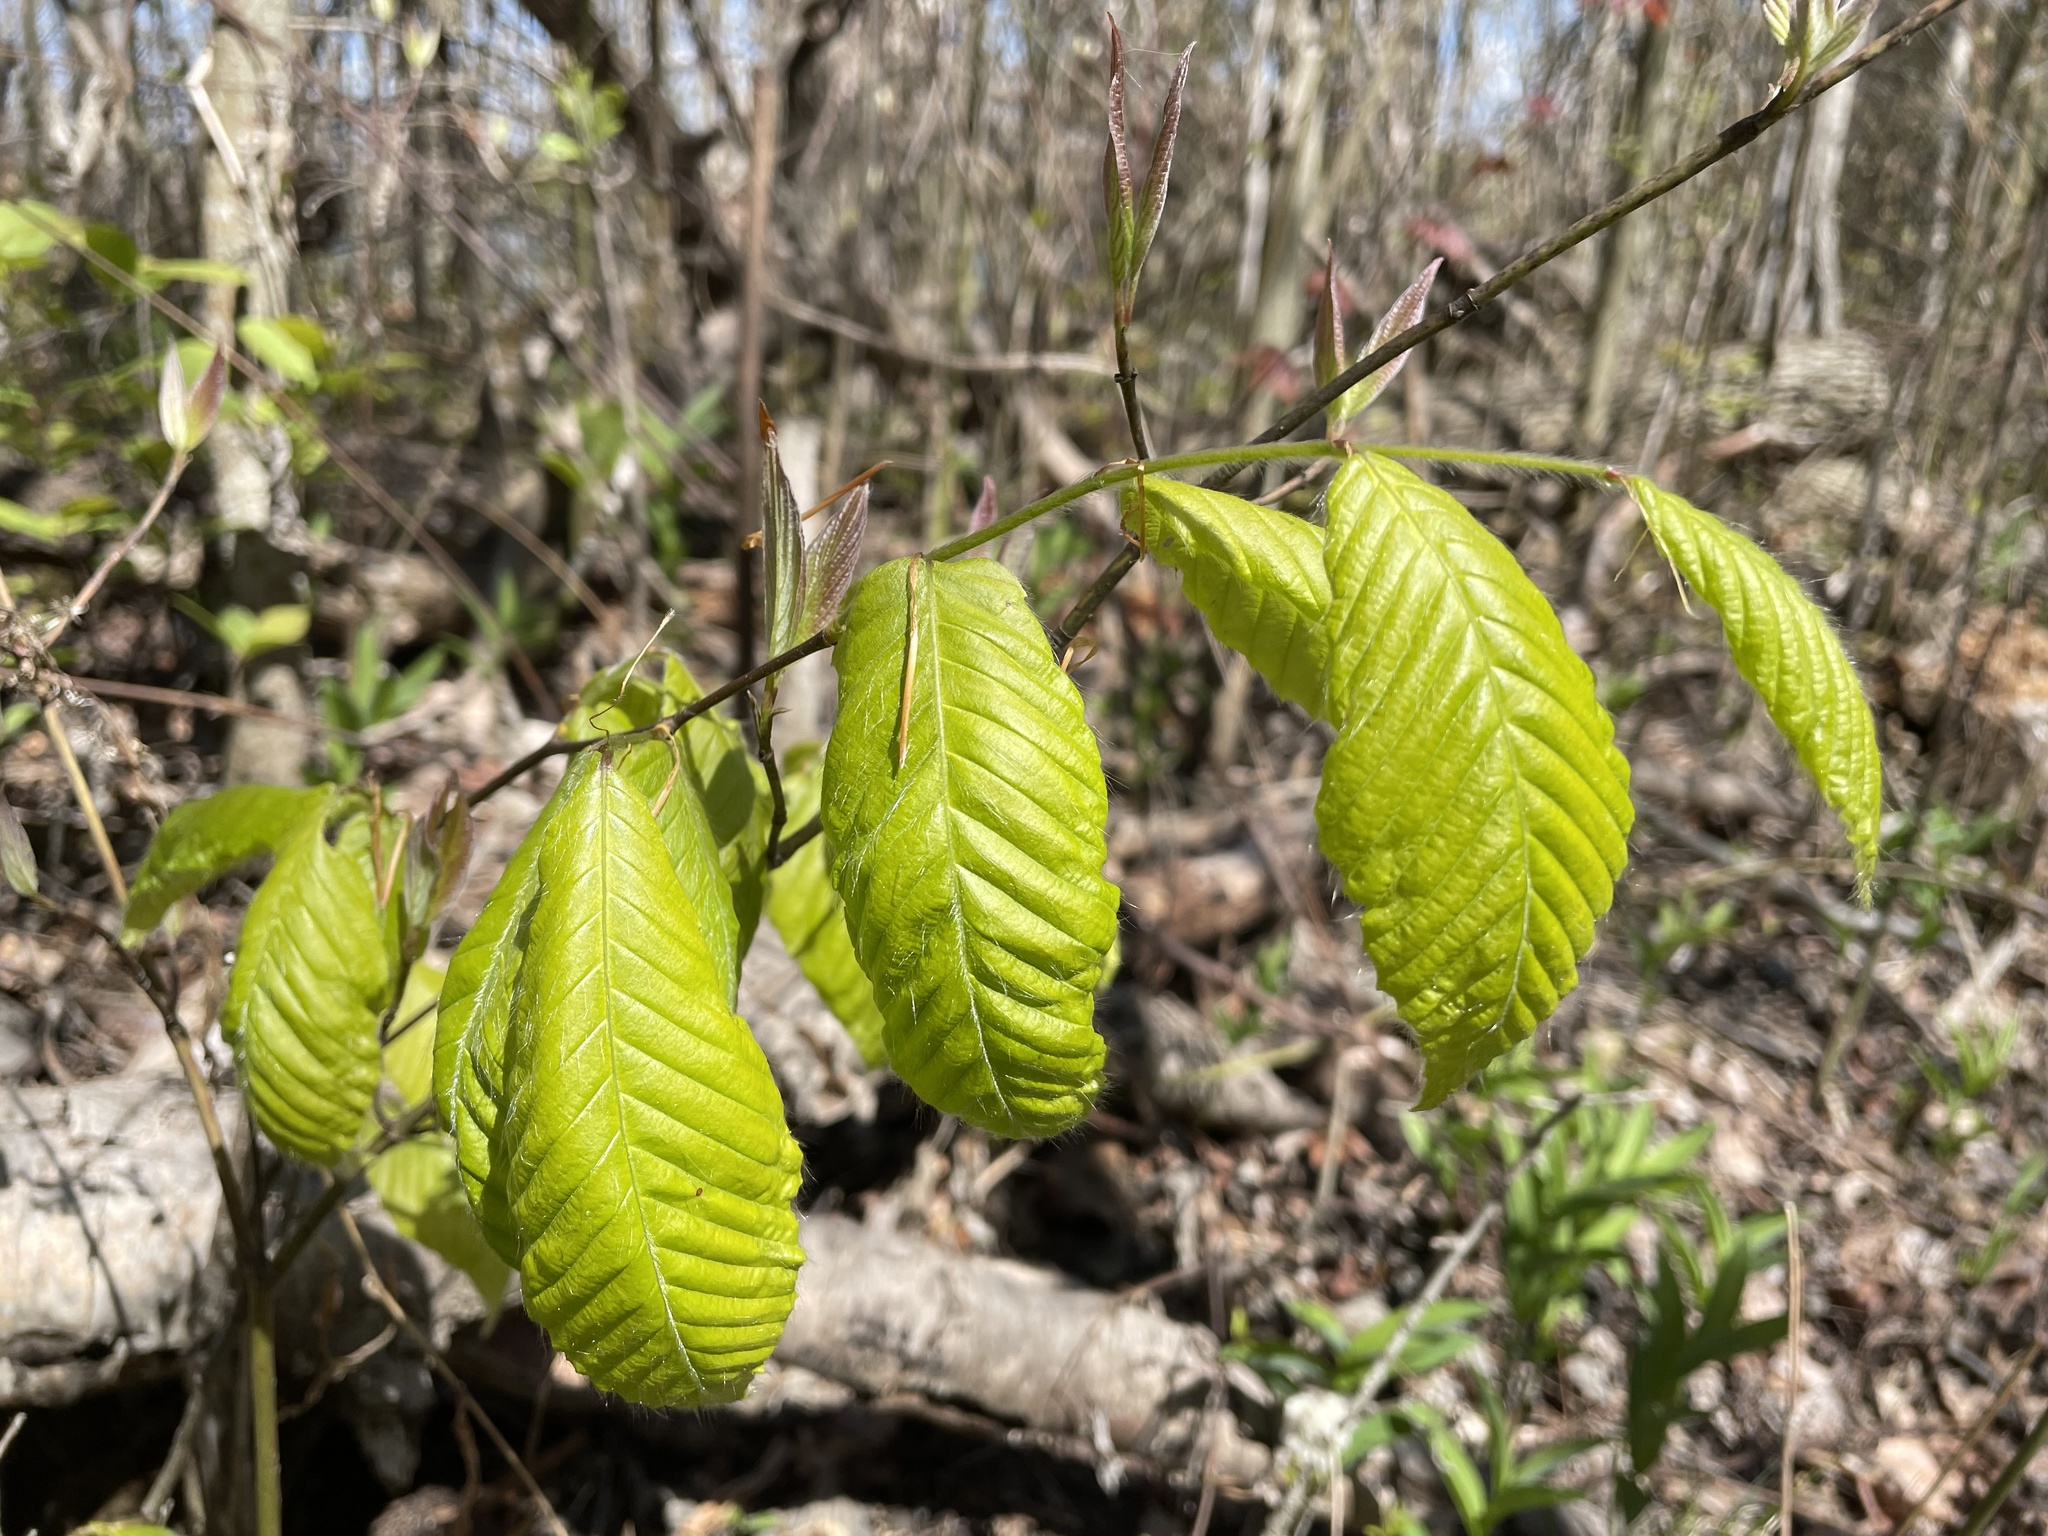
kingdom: Plantae
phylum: Tracheophyta
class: Magnoliopsida
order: Fagales
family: Fagaceae
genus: Fagus
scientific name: Fagus grandifolia
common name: American beech
